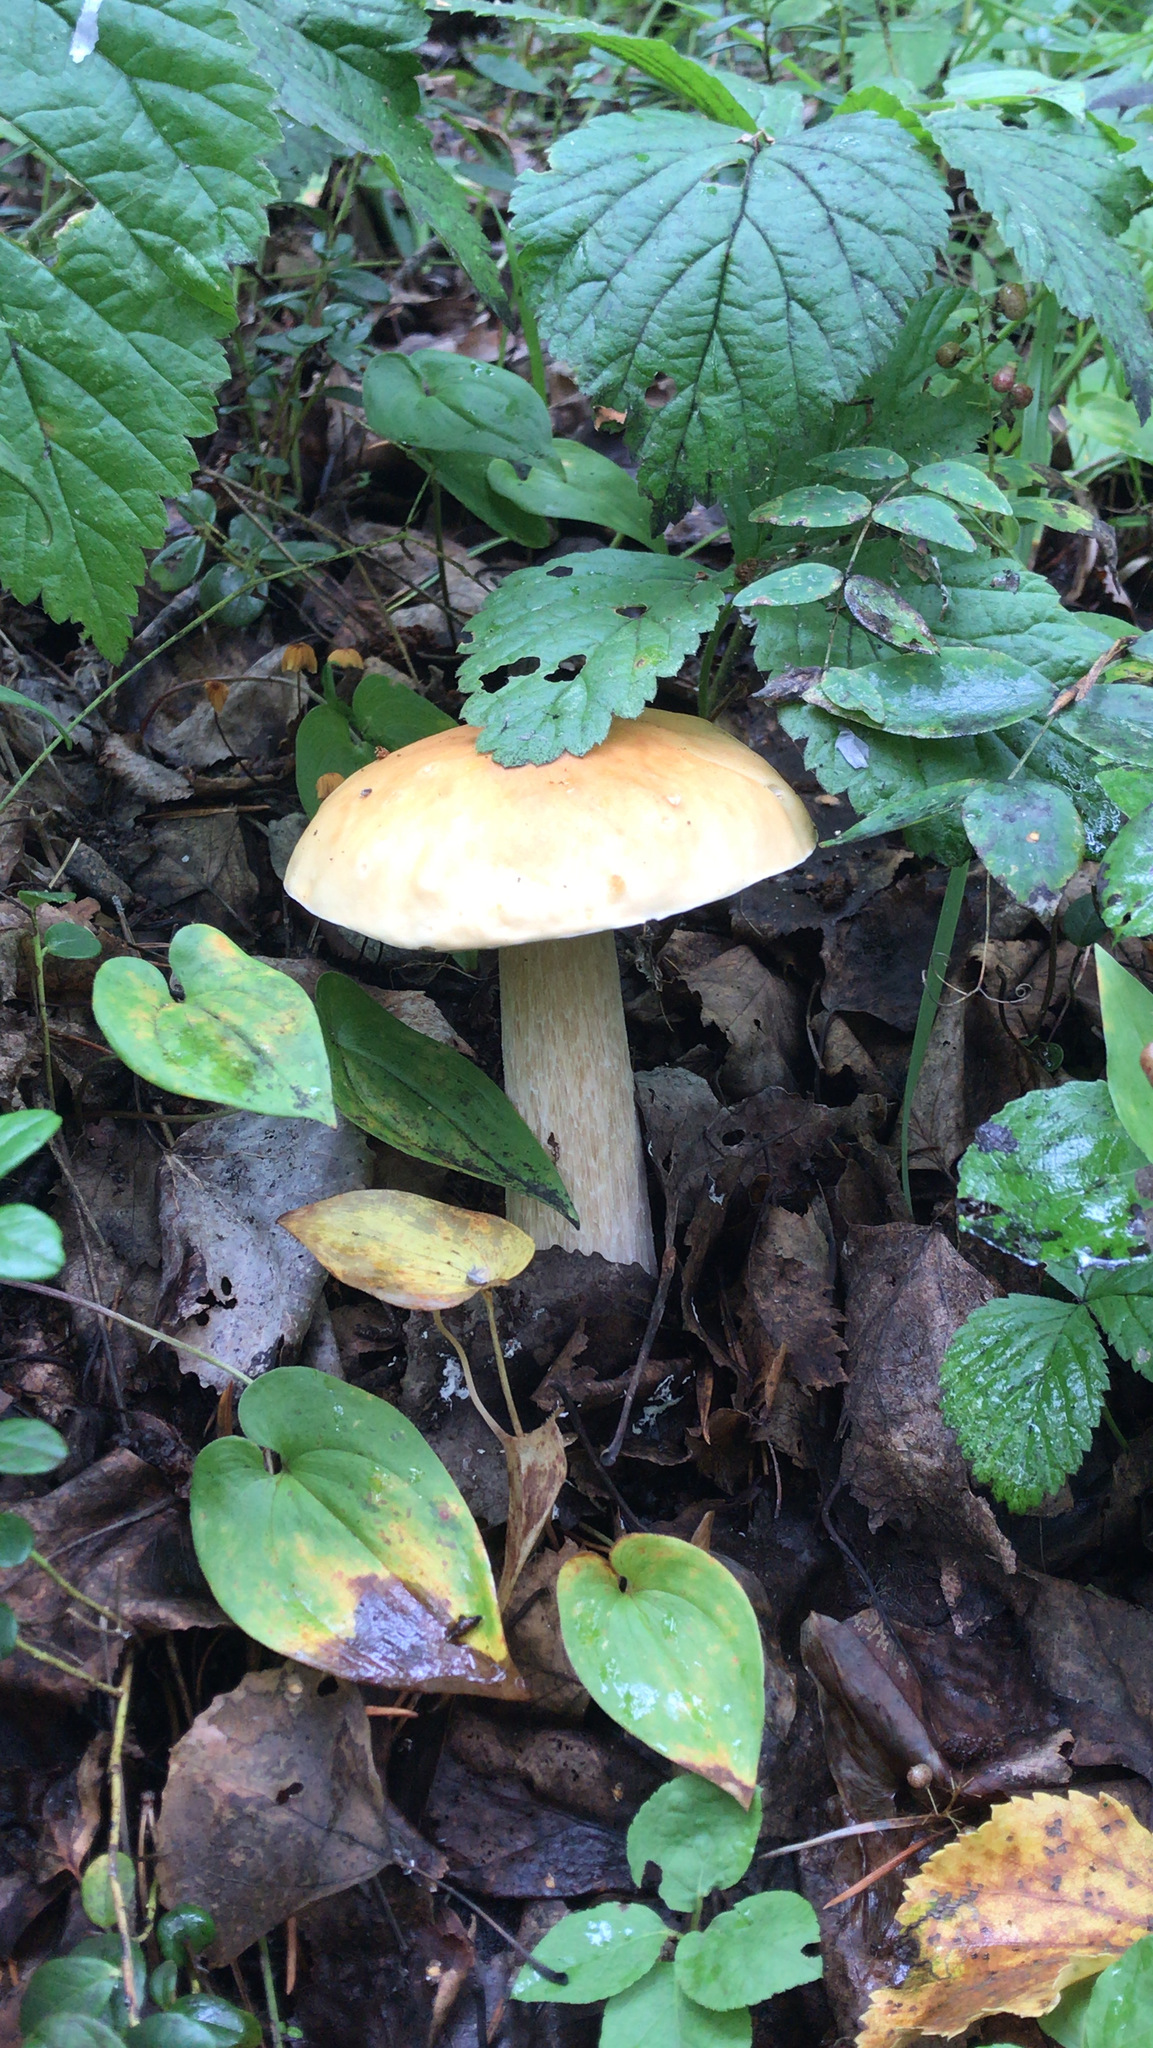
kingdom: Fungi
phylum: Basidiomycota
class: Agaricomycetes
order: Boletales
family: Boletaceae
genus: Boletus
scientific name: Boletus edulis
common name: Cep
